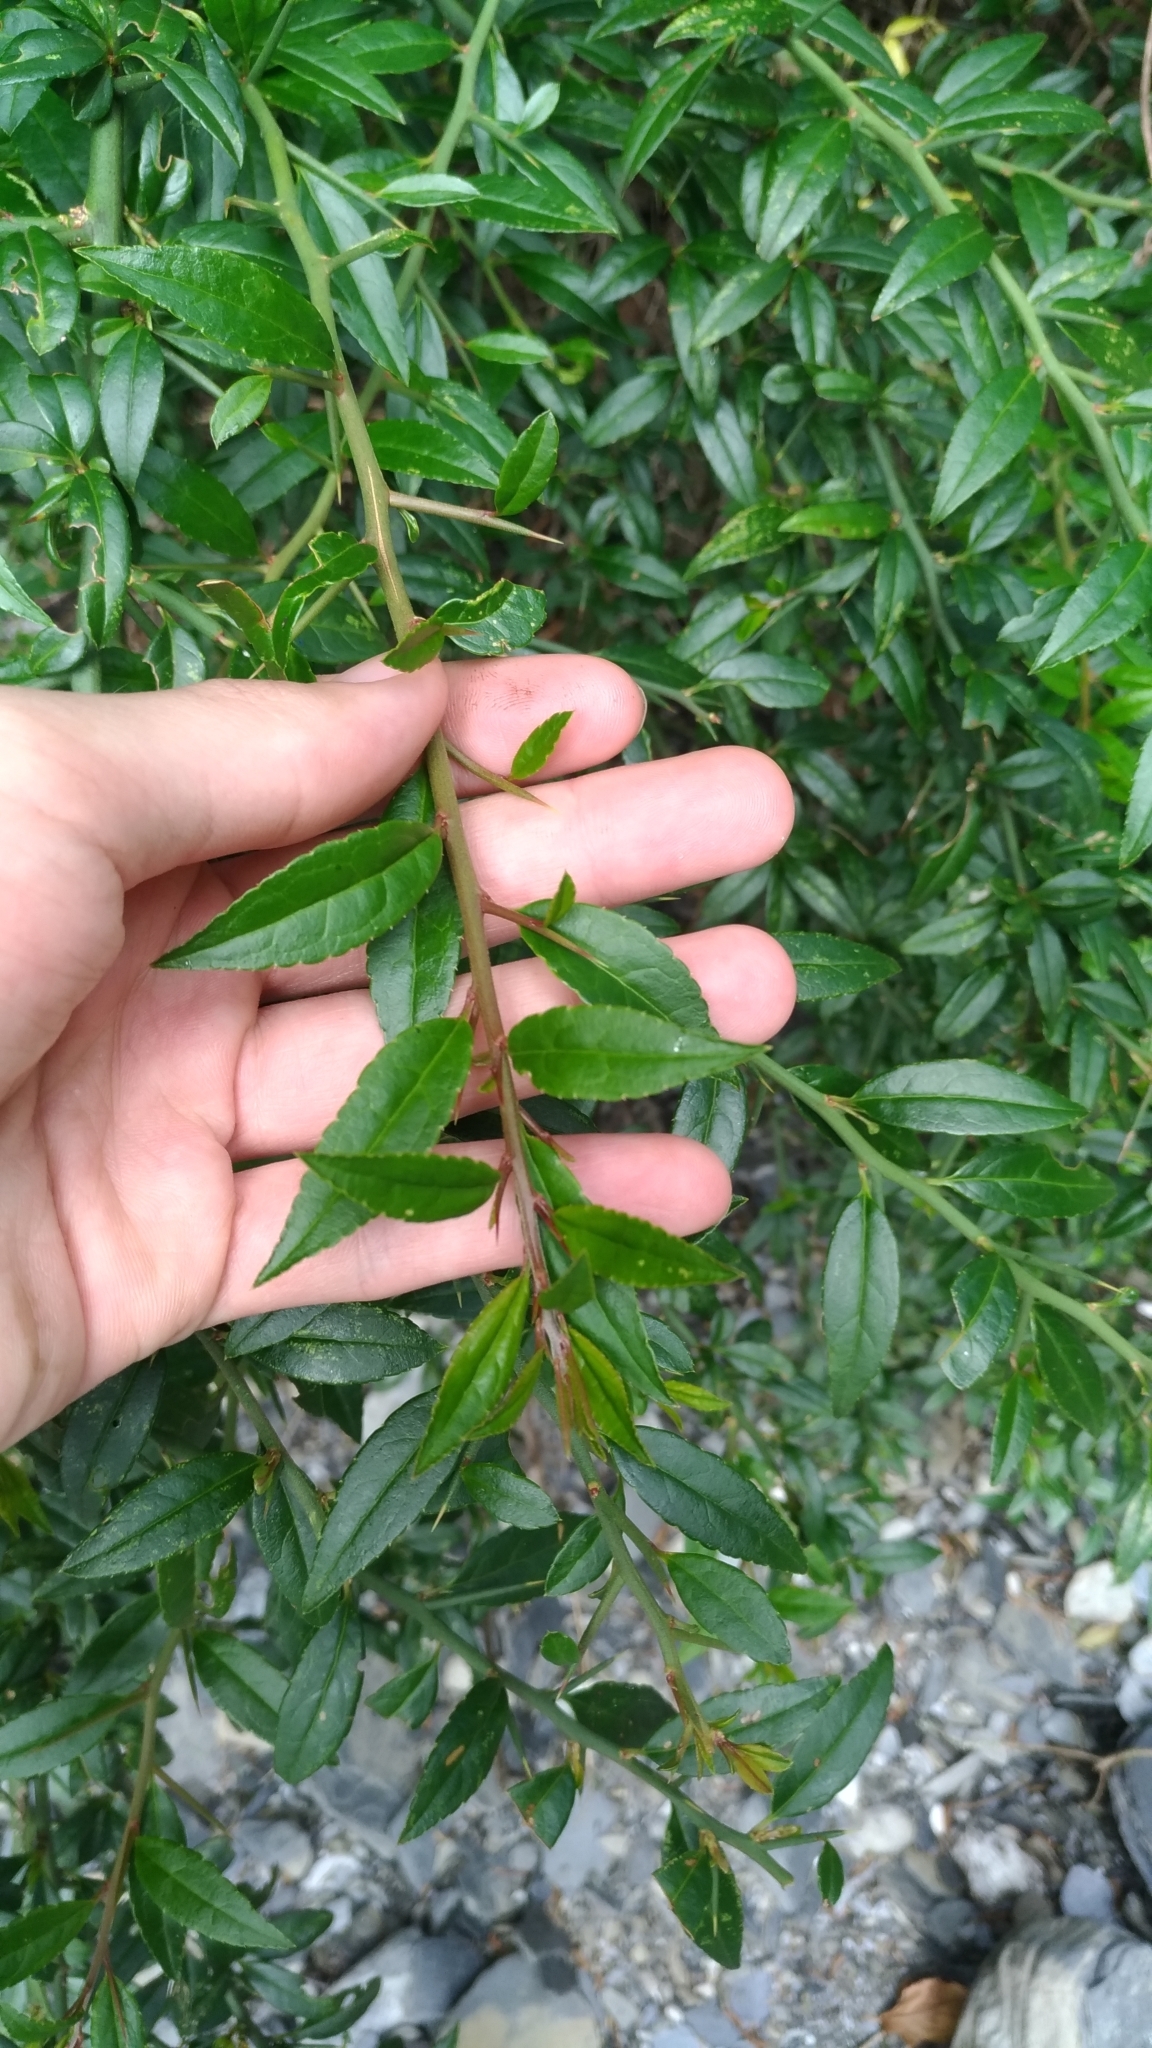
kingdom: Plantae
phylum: Tracheophyta
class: Magnoliopsida
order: Rosales
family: Rosaceae
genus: Prinsepia
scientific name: Prinsepia scandens
